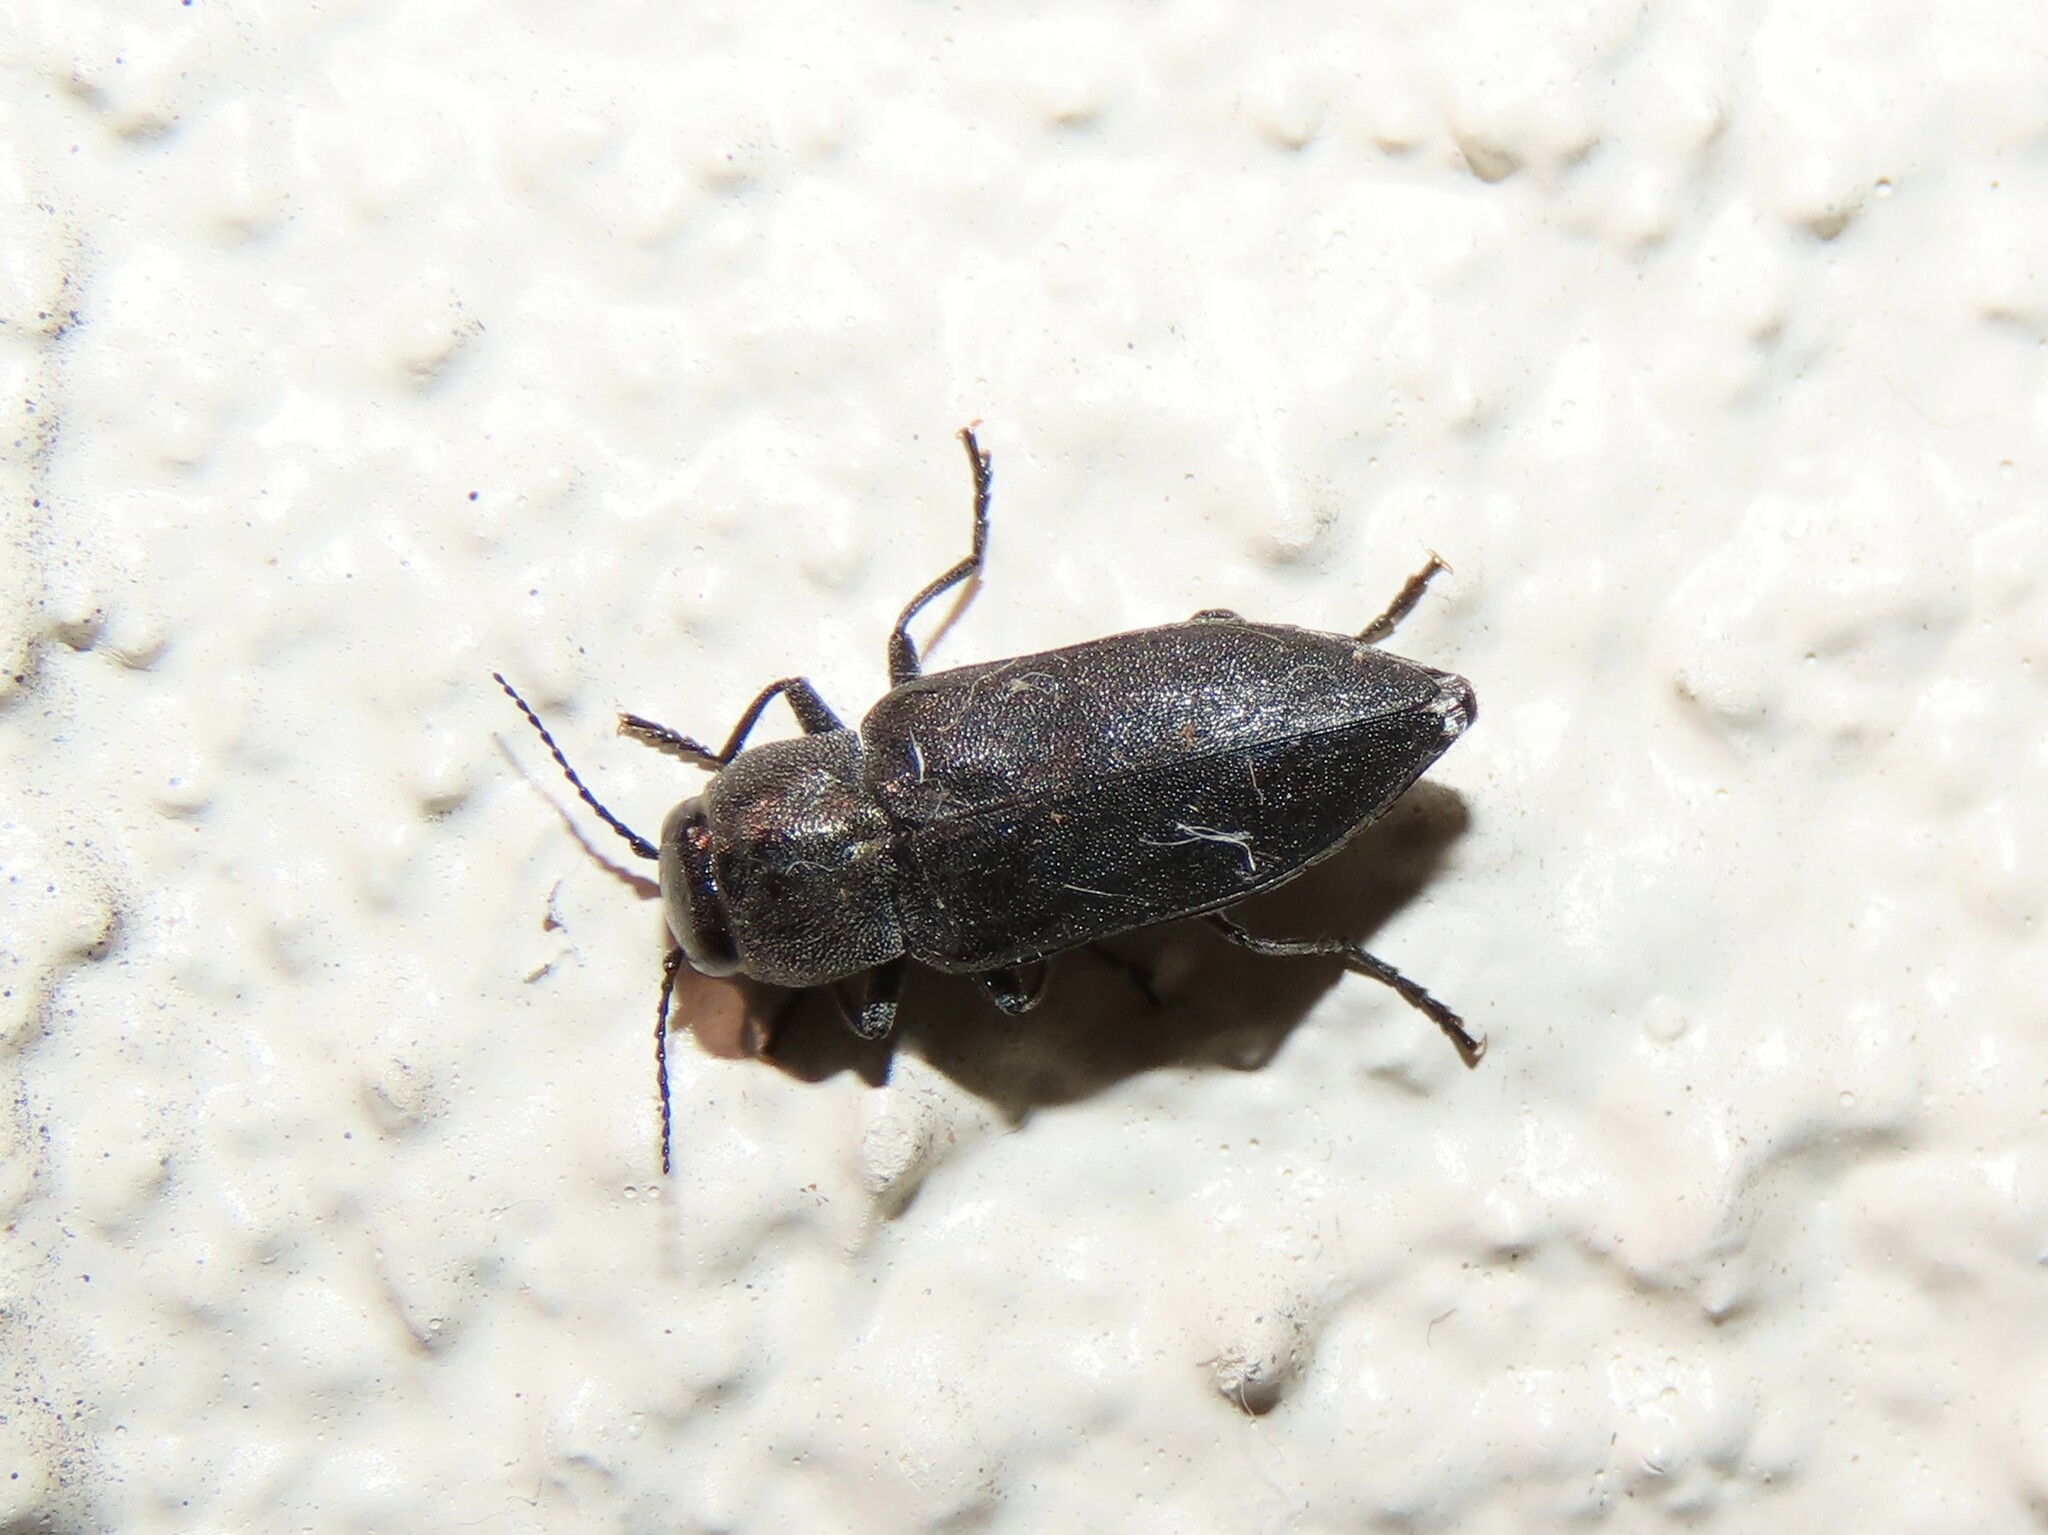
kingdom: Animalia
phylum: Arthropoda
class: Insecta
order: Coleoptera
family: Buprestidae
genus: Melanophila
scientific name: Melanophila notata
